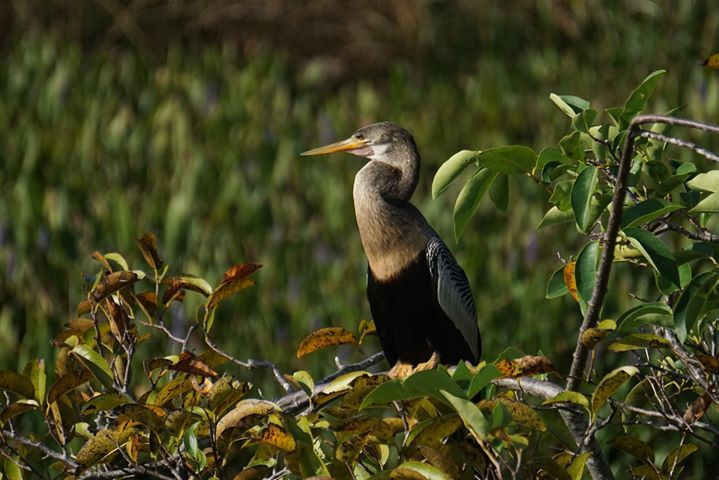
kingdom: Animalia
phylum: Chordata
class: Aves
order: Suliformes
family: Anhingidae
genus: Anhinga
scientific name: Anhinga anhinga
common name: Anhinga
